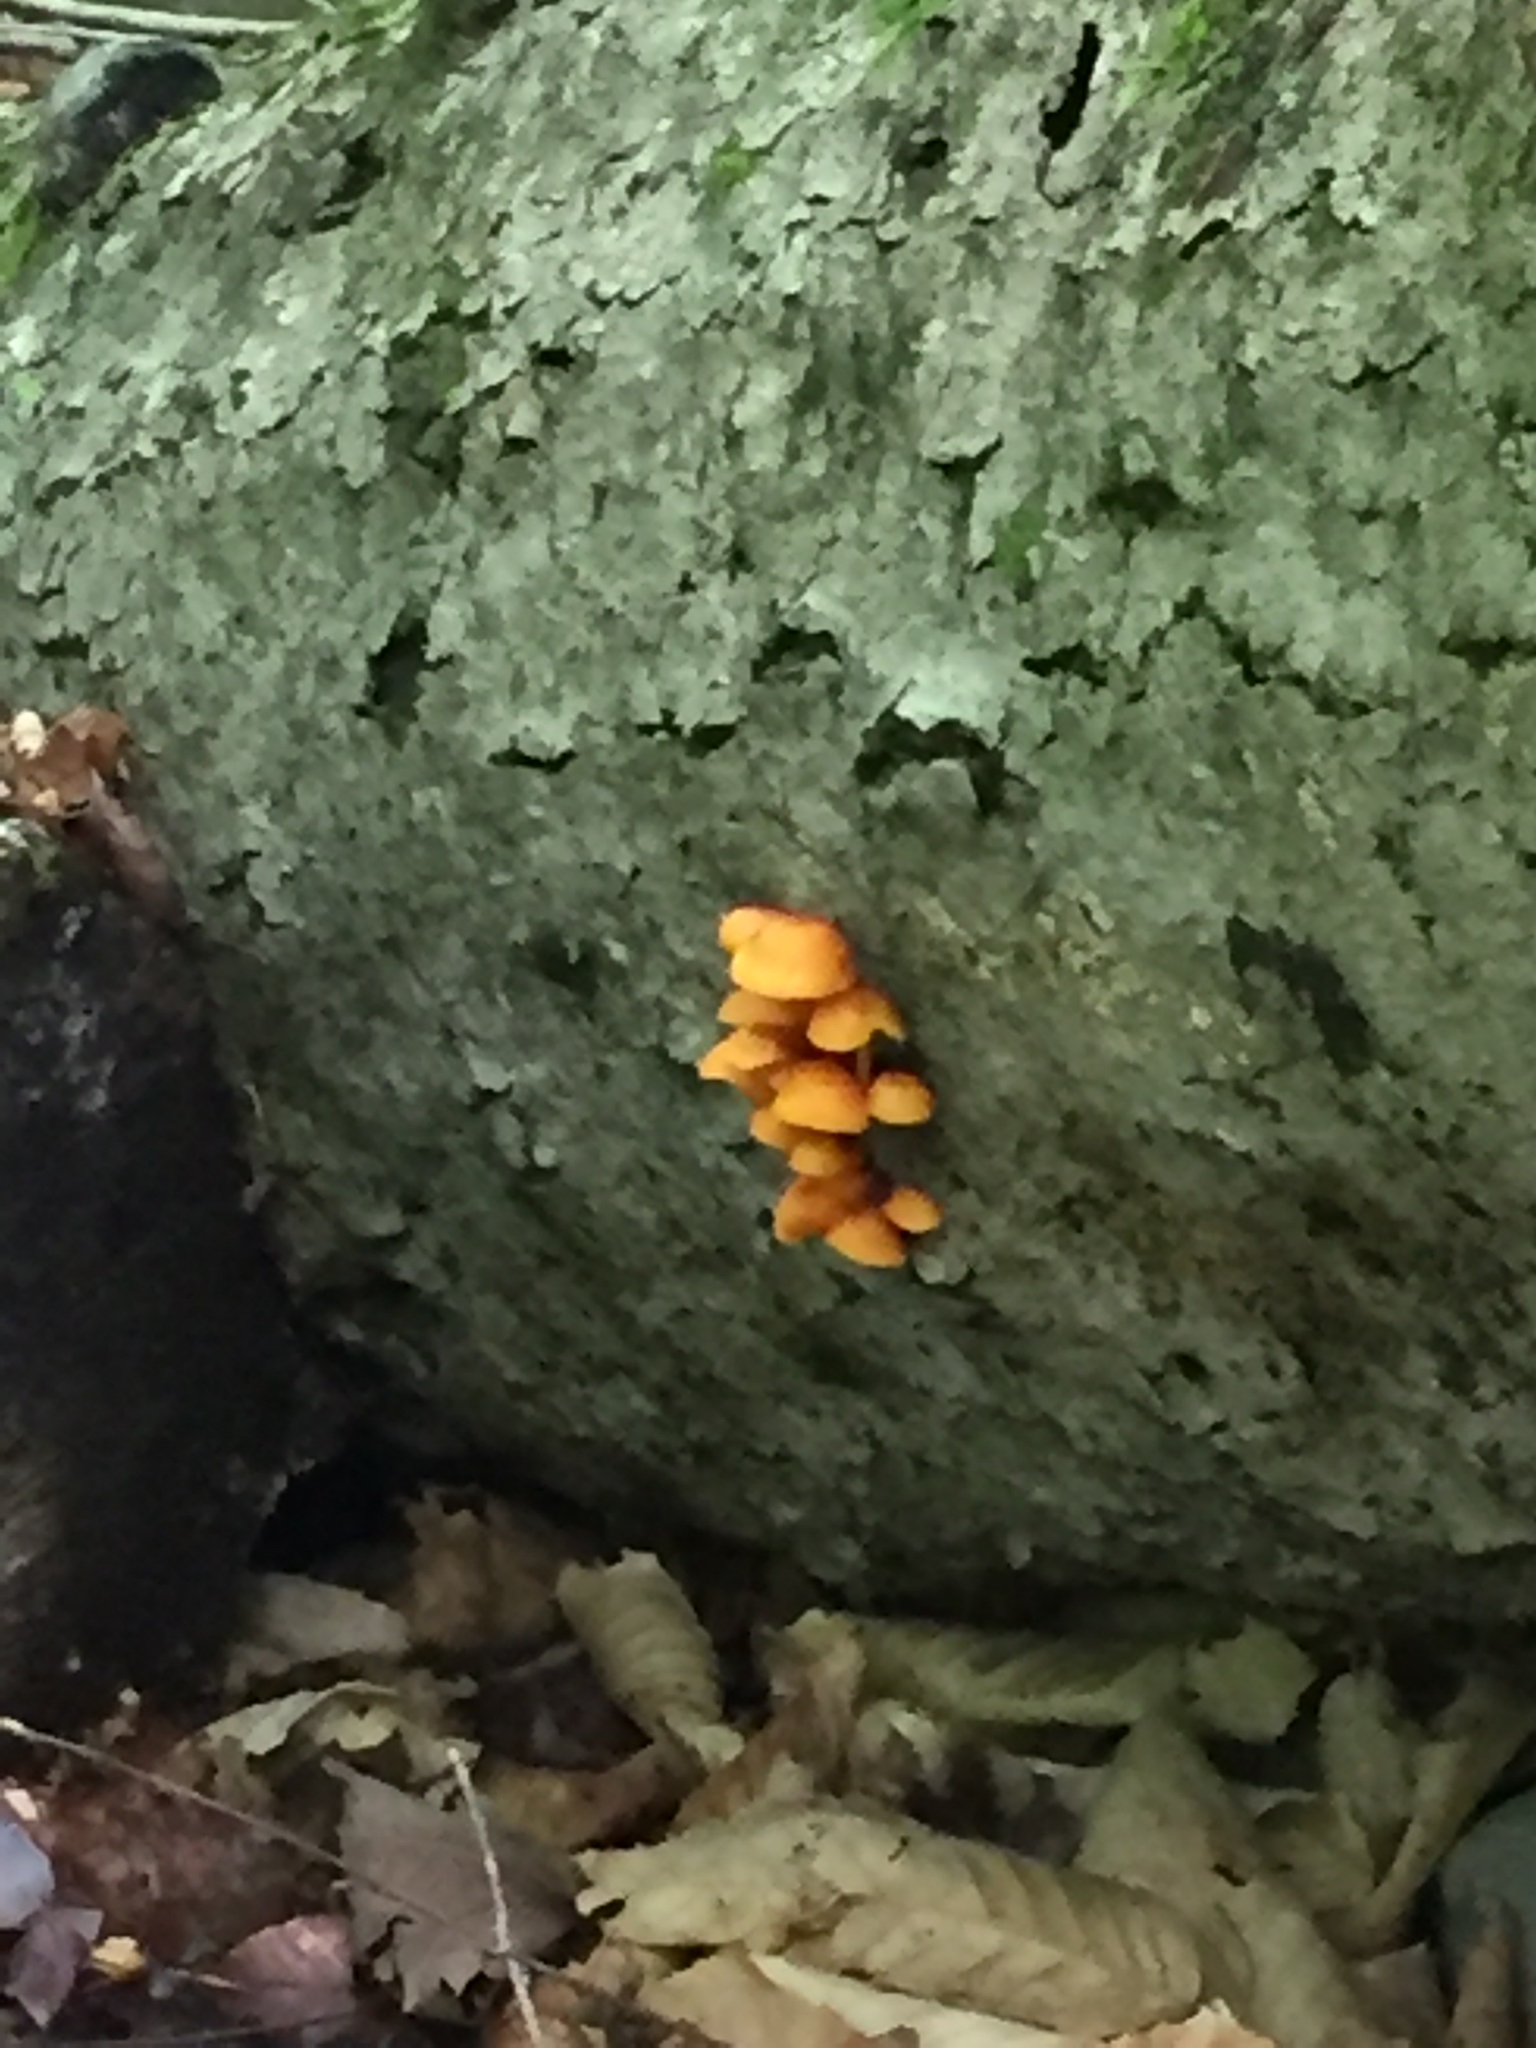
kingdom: Fungi
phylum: Basidiomycota
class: Agaricomycetes
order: Agaricales
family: Mycenaceae
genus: Mycena
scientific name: Mycena leaiana
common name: Orange mycena
